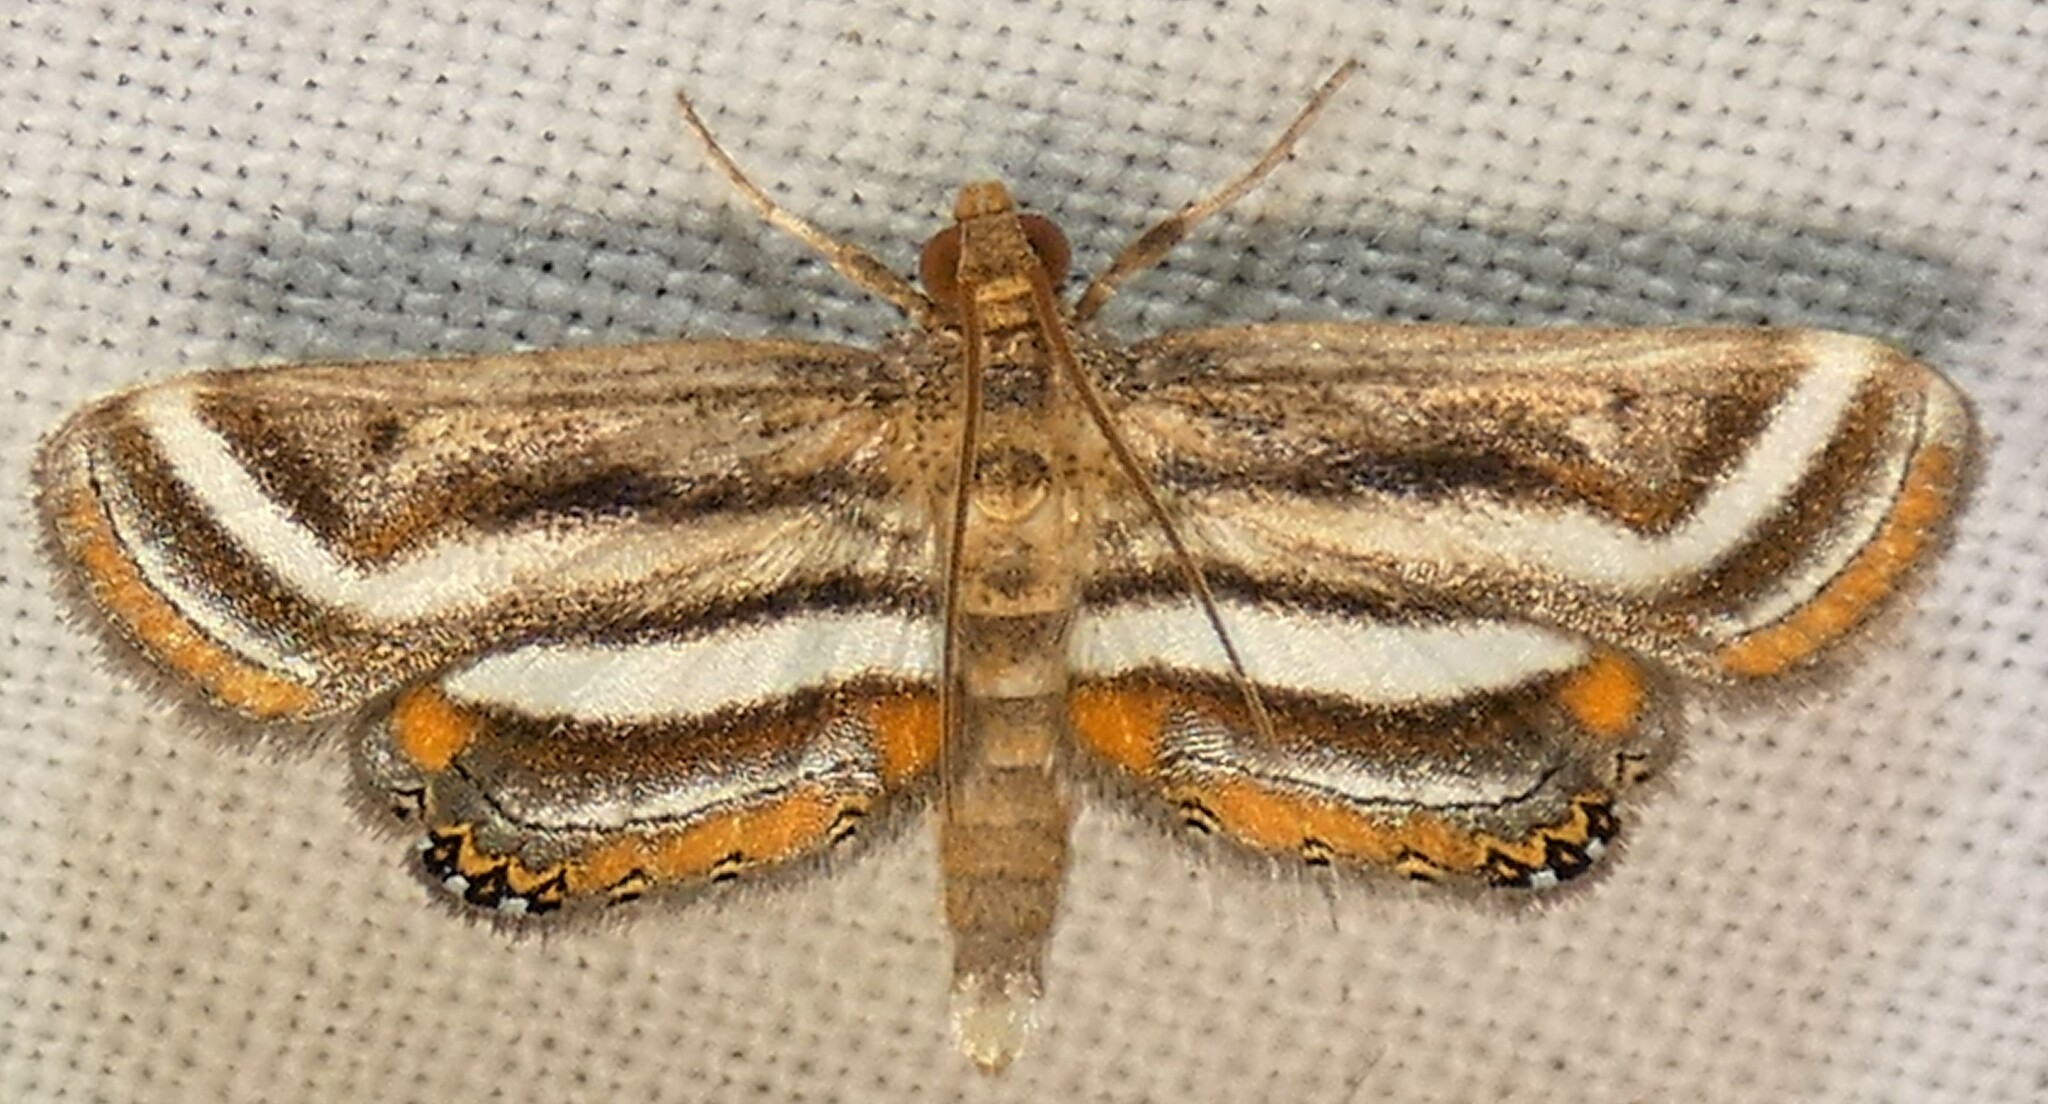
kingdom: Animalia
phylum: Arthropoda
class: Insecta
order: Lepidoptera
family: Crambidae
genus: Parapoynx
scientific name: Parapoynx seminealis
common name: Floating-heart waterlily leafcutter
